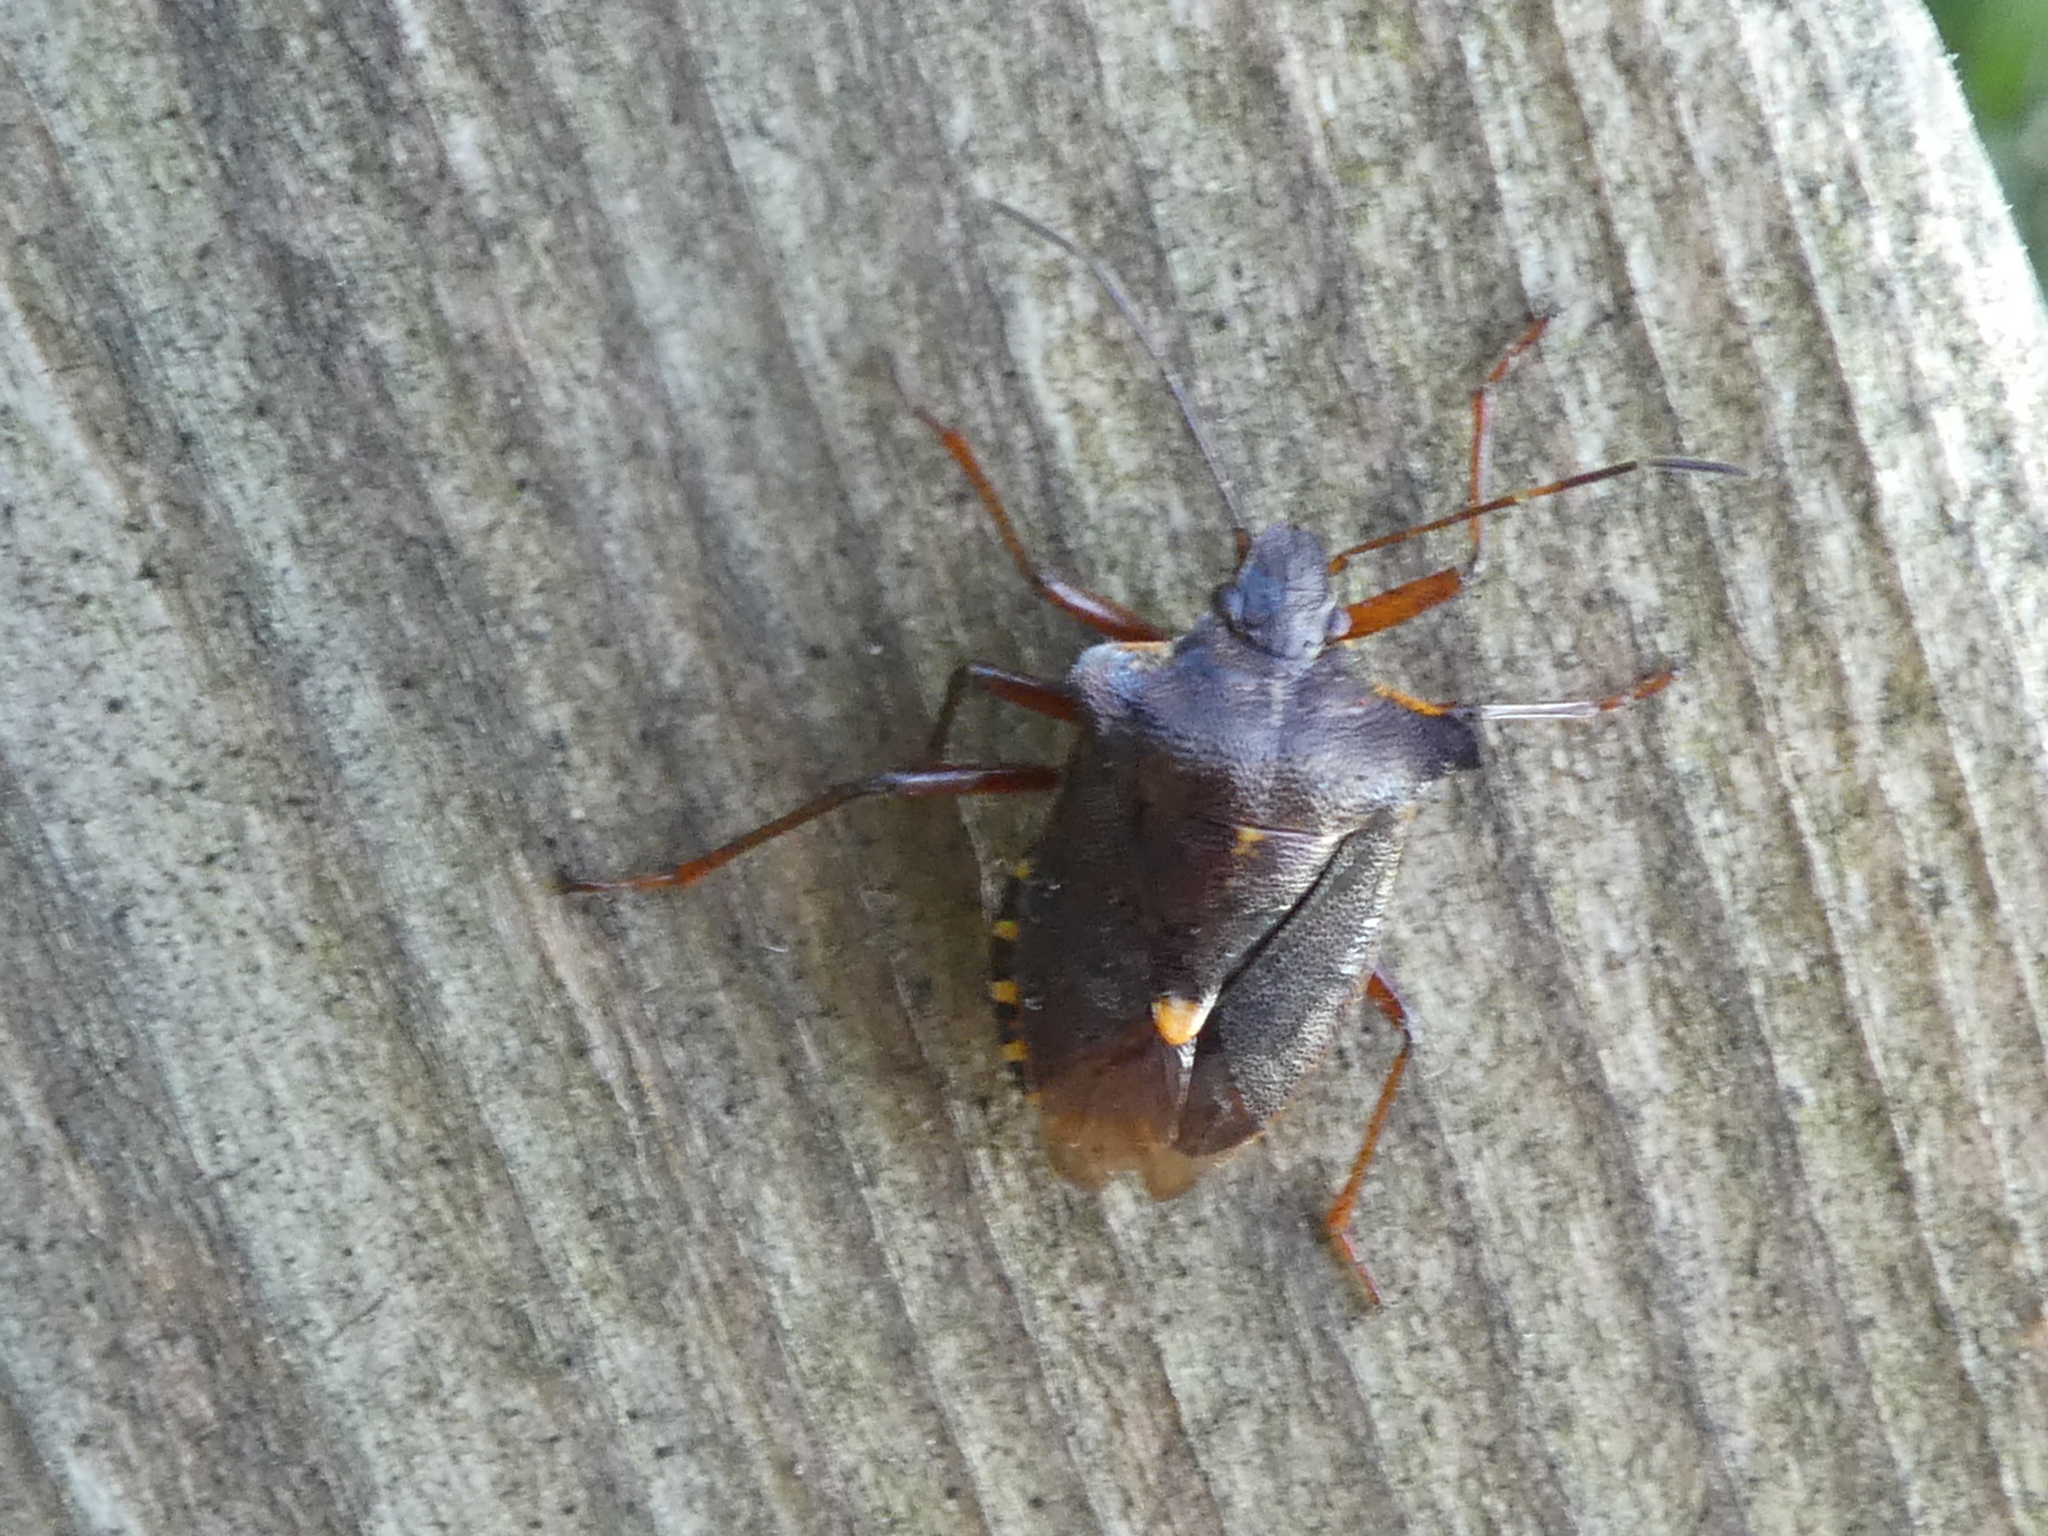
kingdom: Animalia
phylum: Arthropoda
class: Insecta
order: Hemiptera
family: Pentatomidae
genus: Pentatoma
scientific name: Pentatoma rufipes
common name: Forest bug
